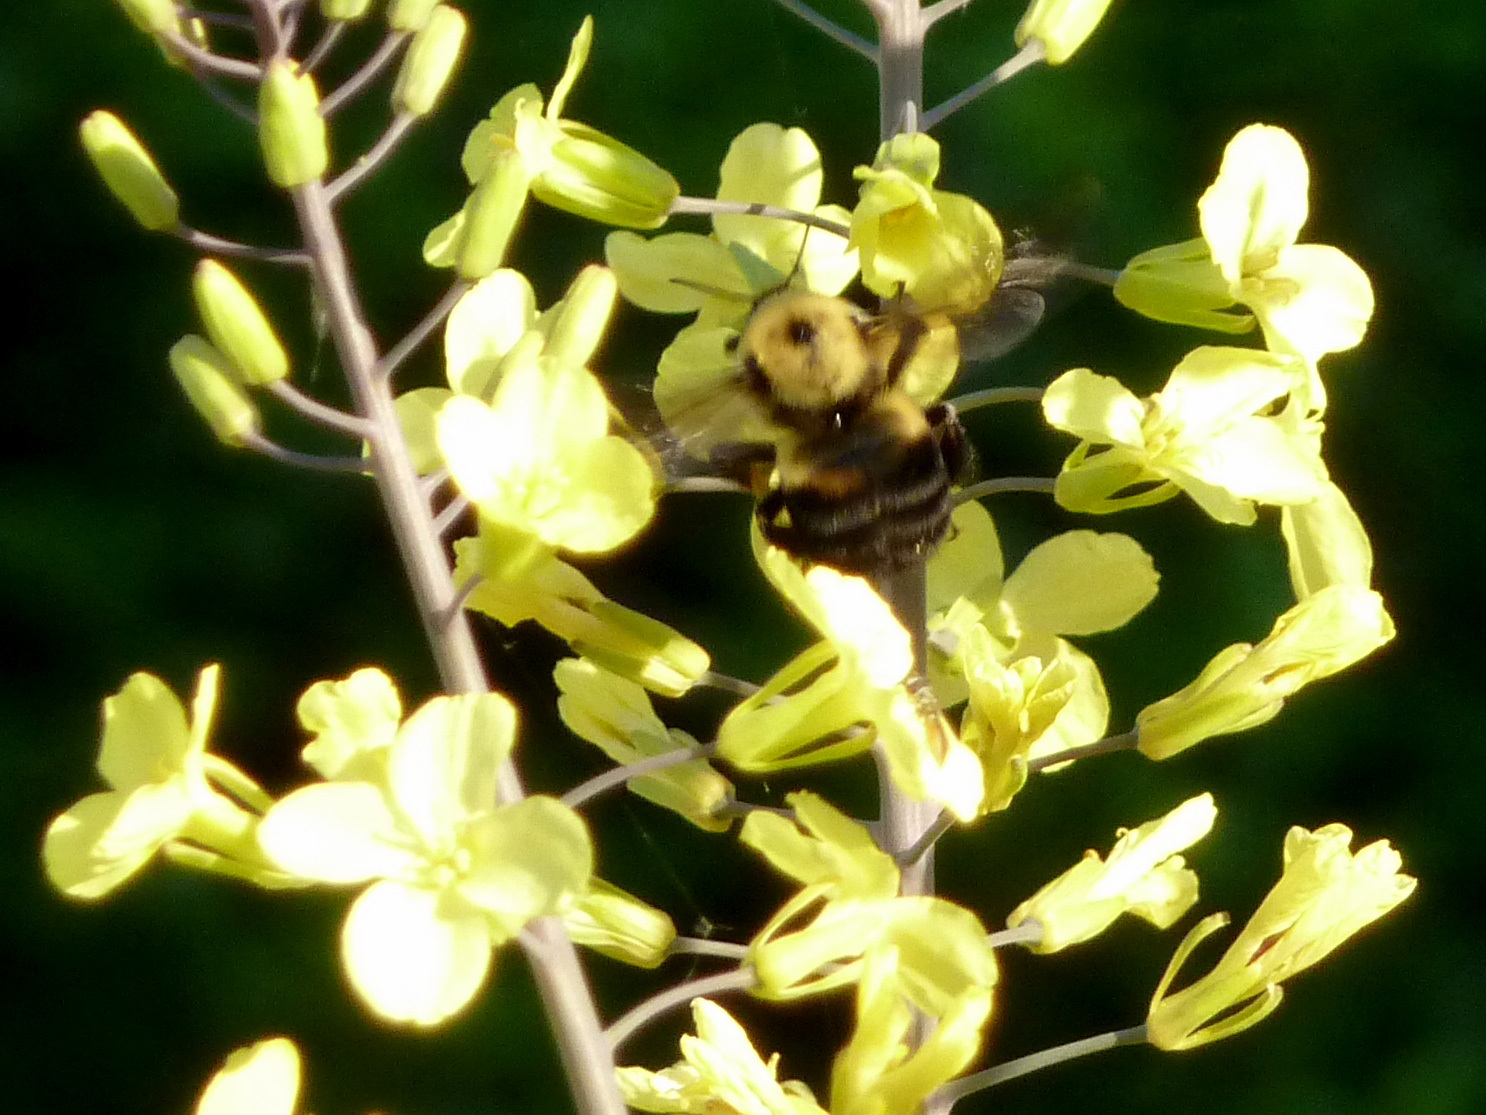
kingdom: Animalia
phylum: Arthropoda
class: Insecta
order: Hymenoptera
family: Apidae
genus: Bombus
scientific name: Bombus griseocollis
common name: Brown-belted bumble bee
